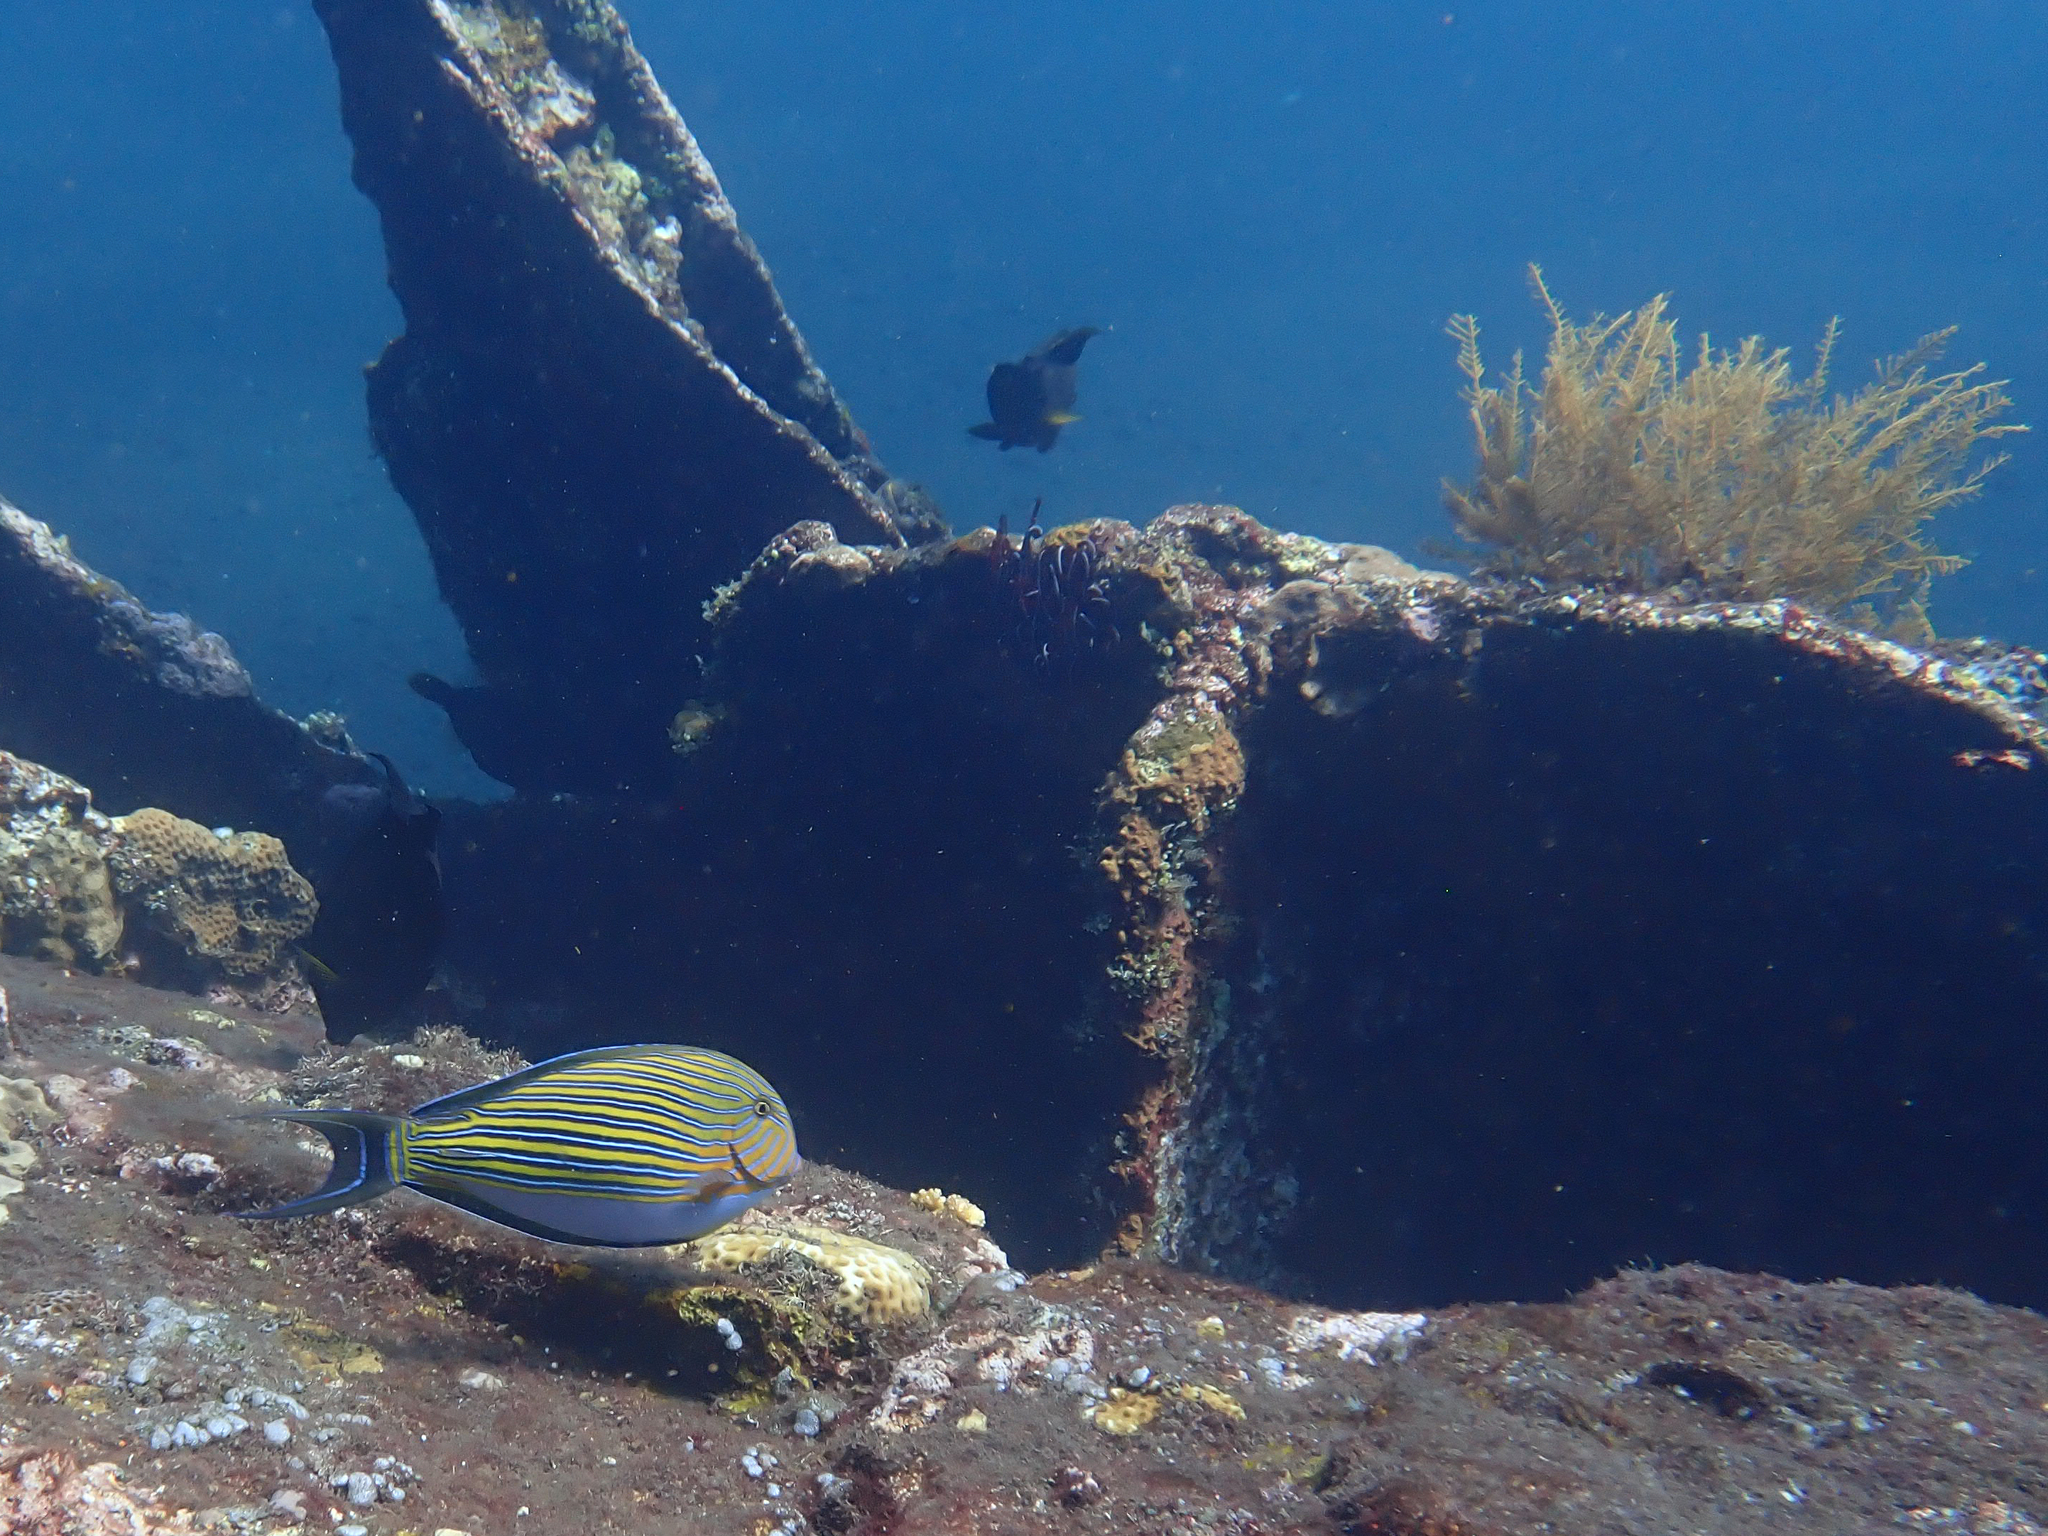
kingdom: Animalia
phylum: Chordata
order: Perciformes
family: Acanthuridae
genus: Acanthurus
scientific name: Acanthurus lineatus
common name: Striped surgeonfish
